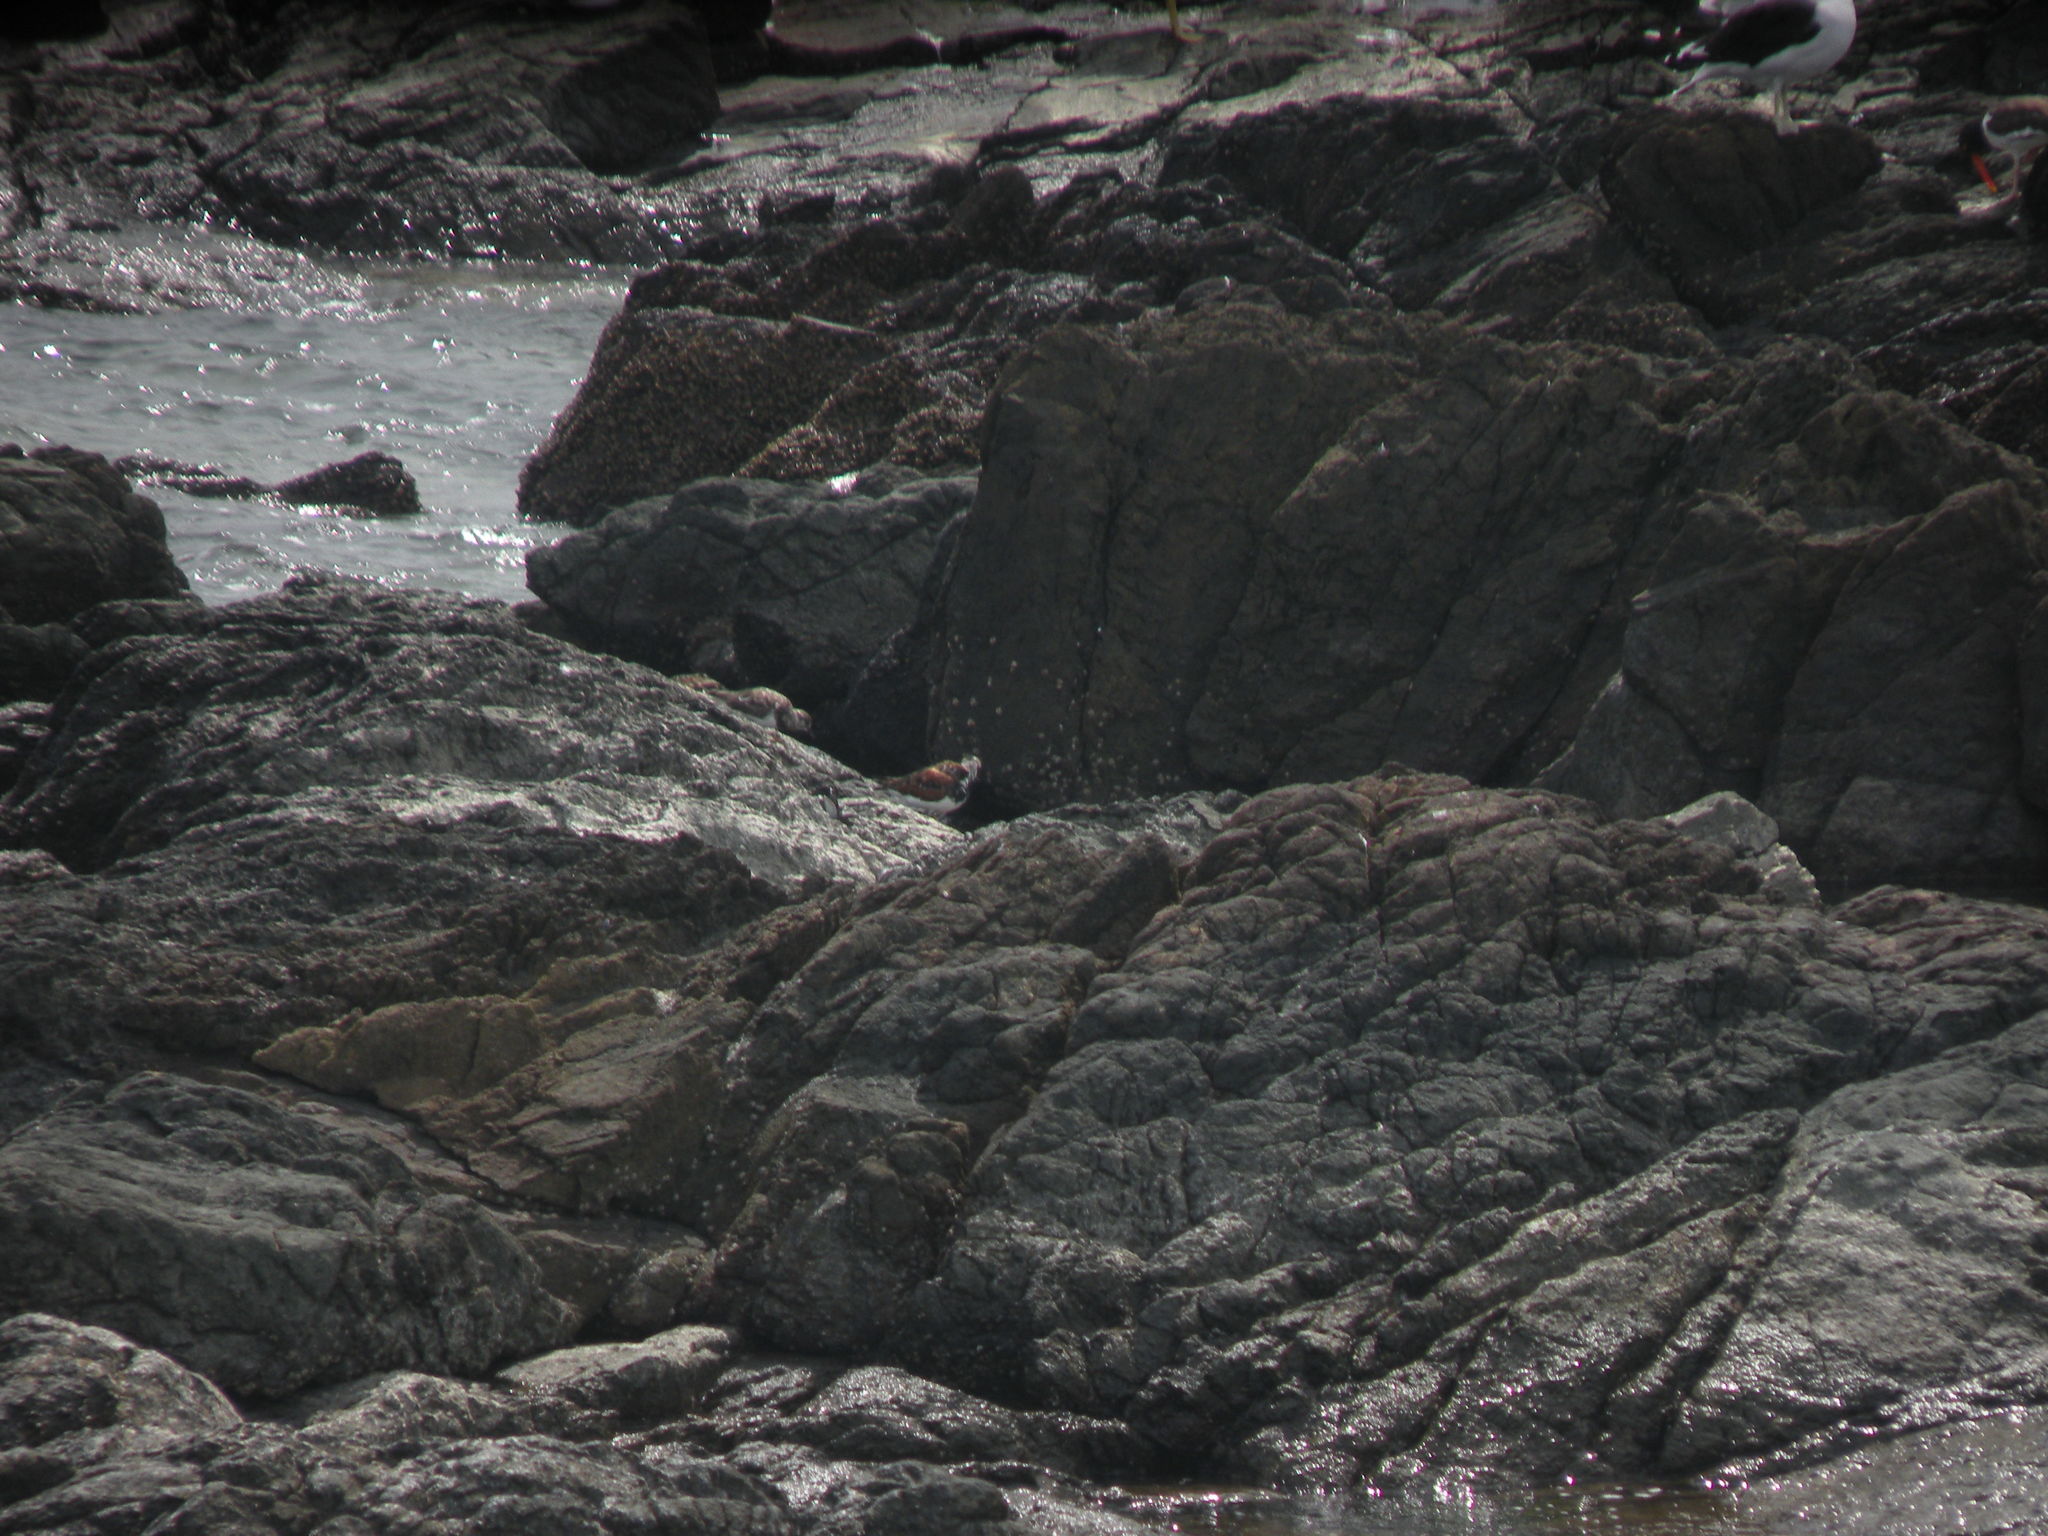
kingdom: Animalia
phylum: Chordata
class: Aves
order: Charadriiformes
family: Scolopacidae
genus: Arenaria
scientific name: Arenaria interpres
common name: Ruddy turnstone
